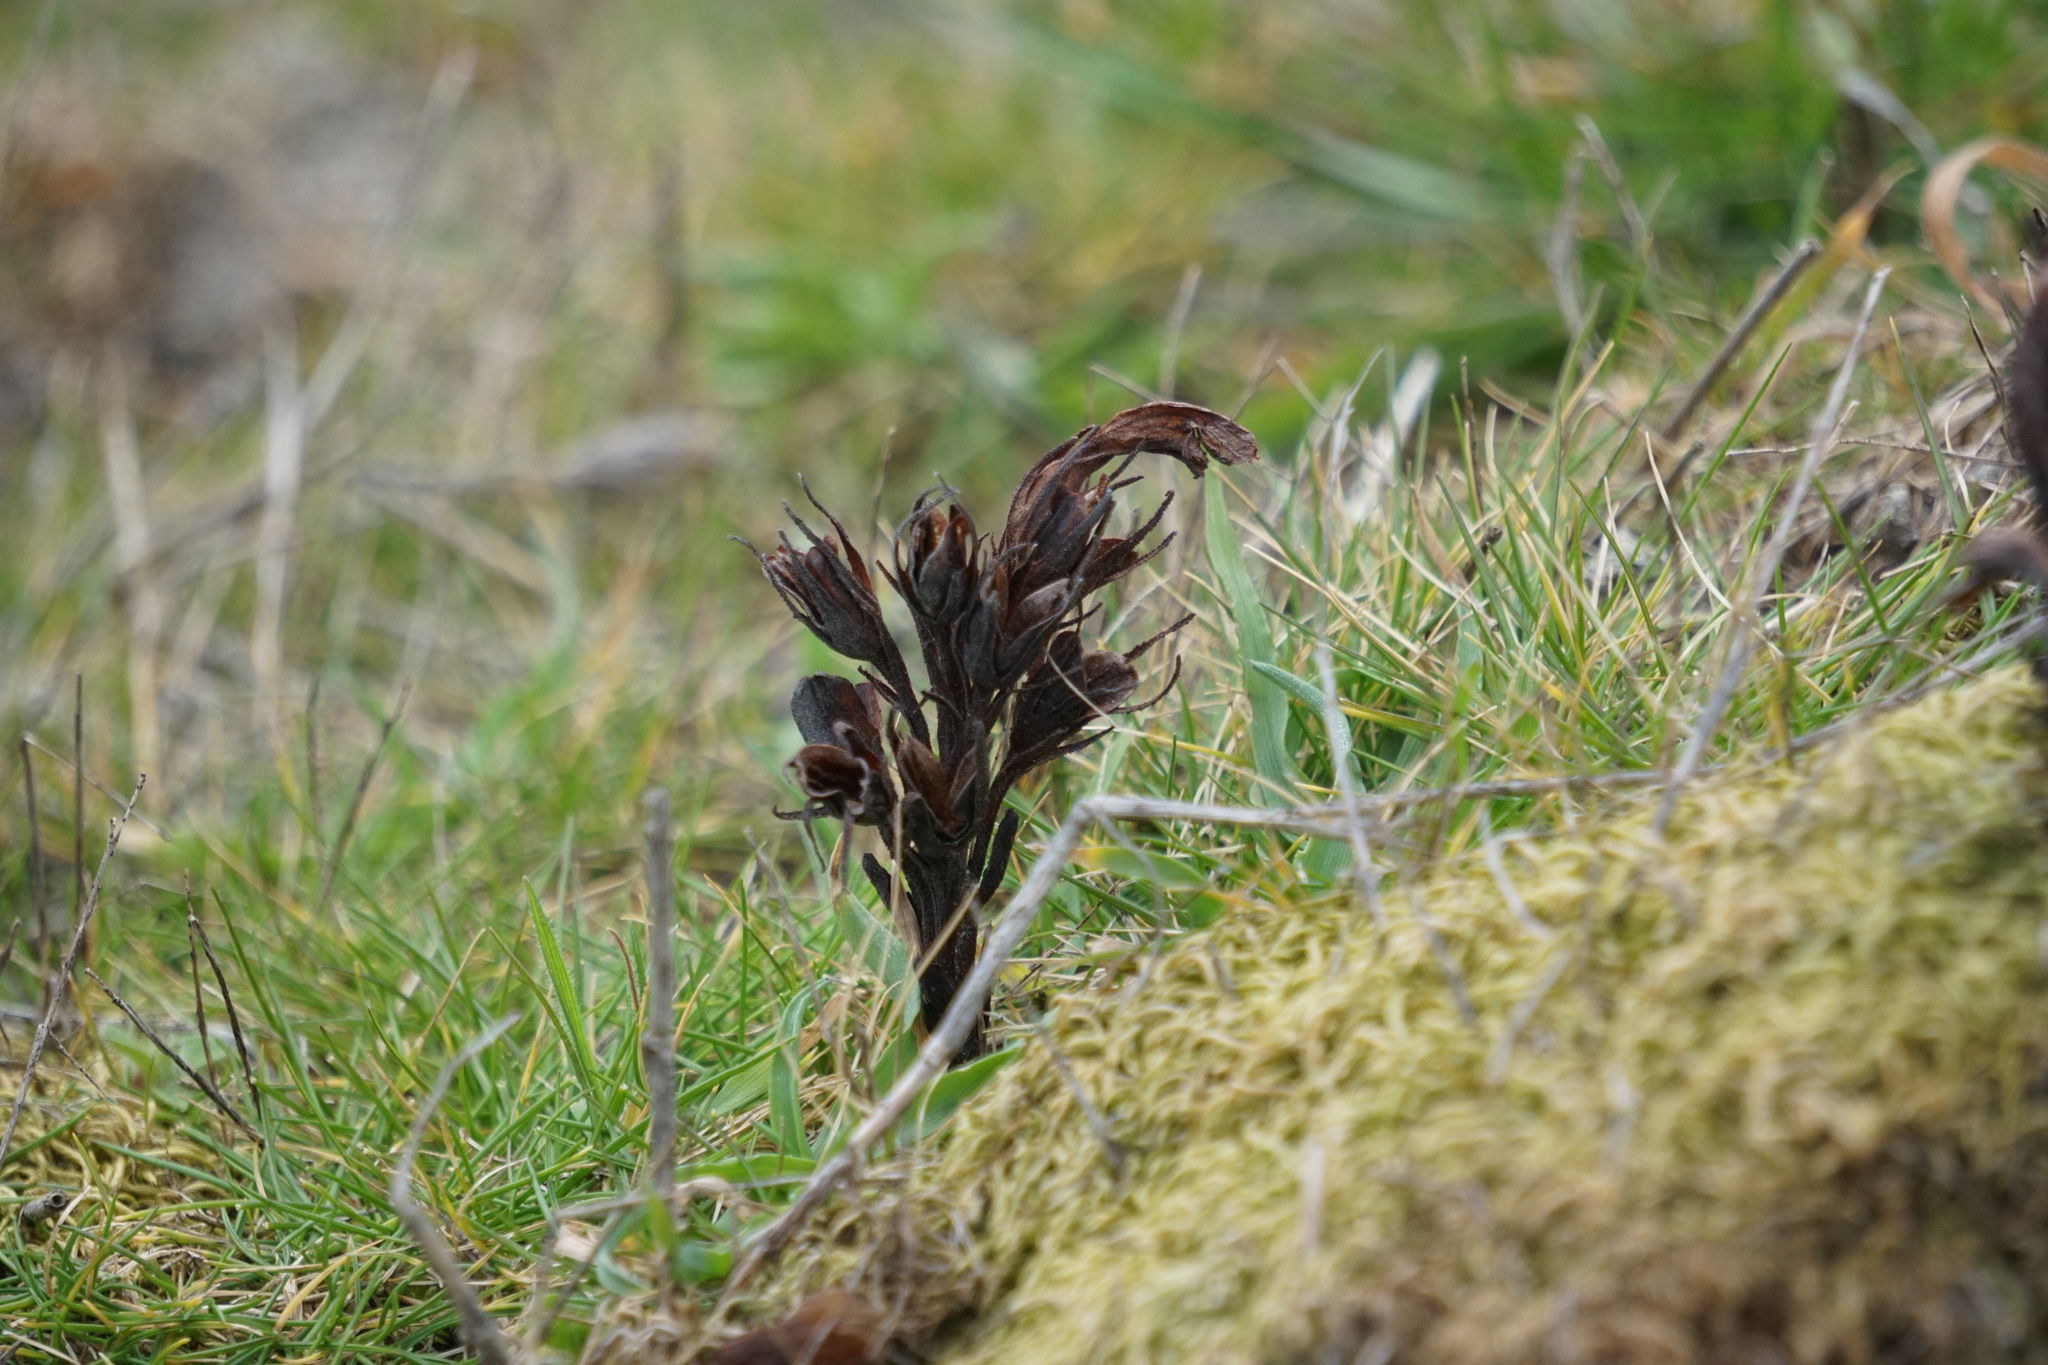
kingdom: Plantae
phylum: Tracheophyta
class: Magnoliopsida
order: Lamiales
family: Orobanchaceae
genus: Aphyllon
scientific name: Aphyllon californicum
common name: California broomrape
